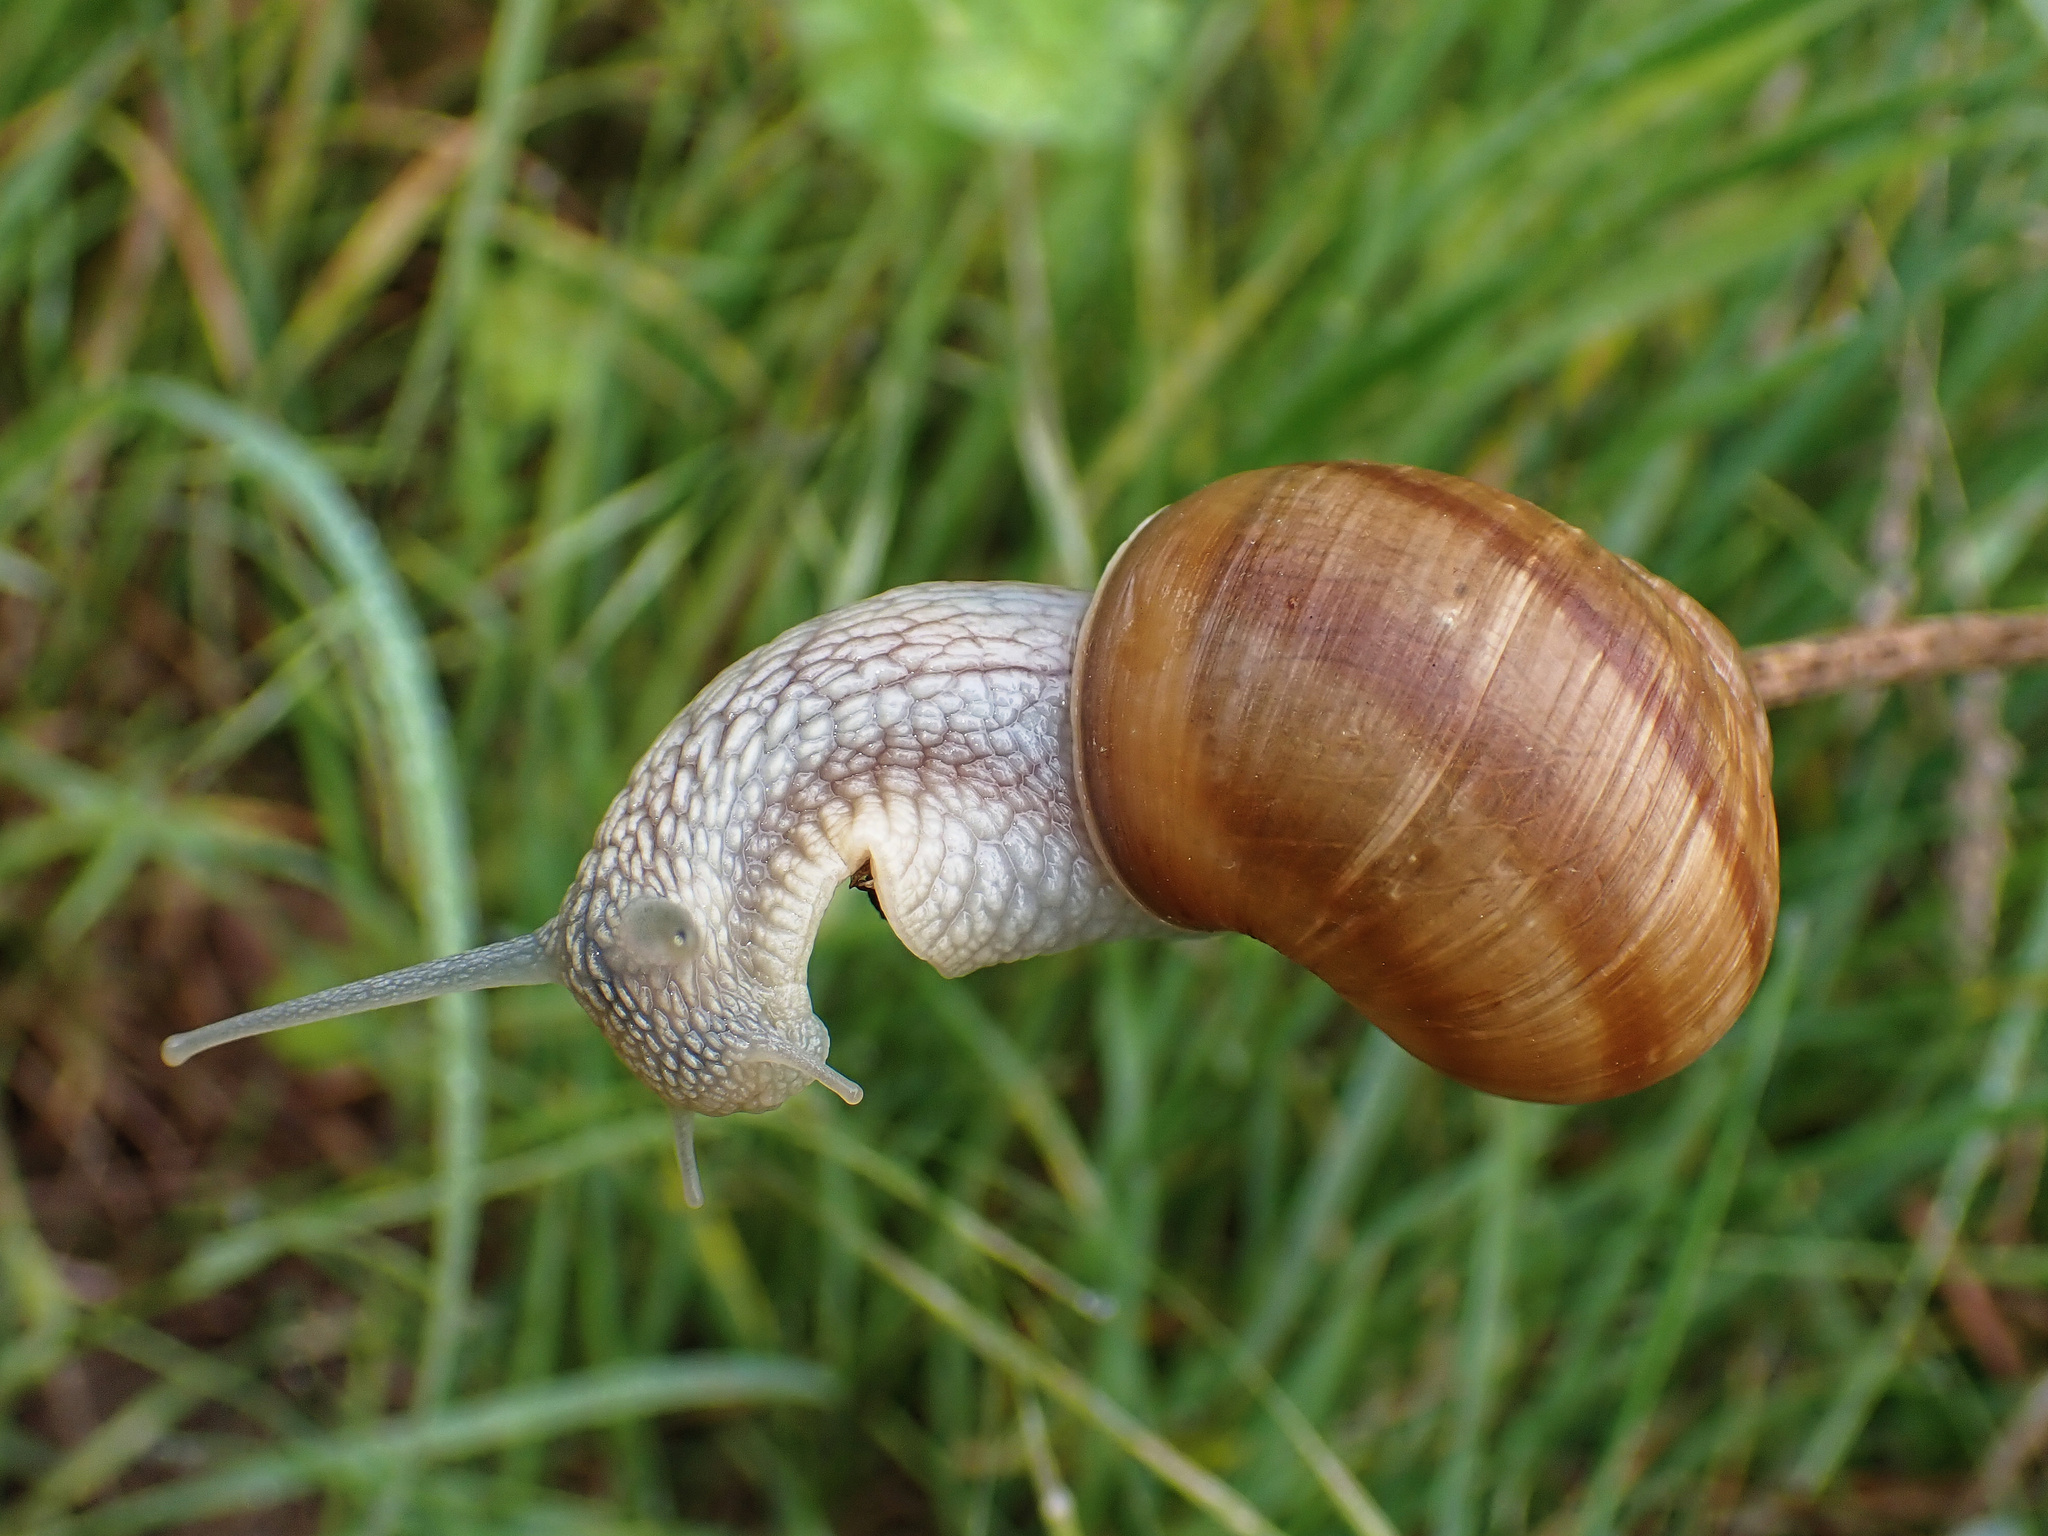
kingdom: Animalia
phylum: Mollusca
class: Gastropoda
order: Stylommatophora
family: Helicidae
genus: Helix
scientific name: Helix pomatia
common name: Roman snail
